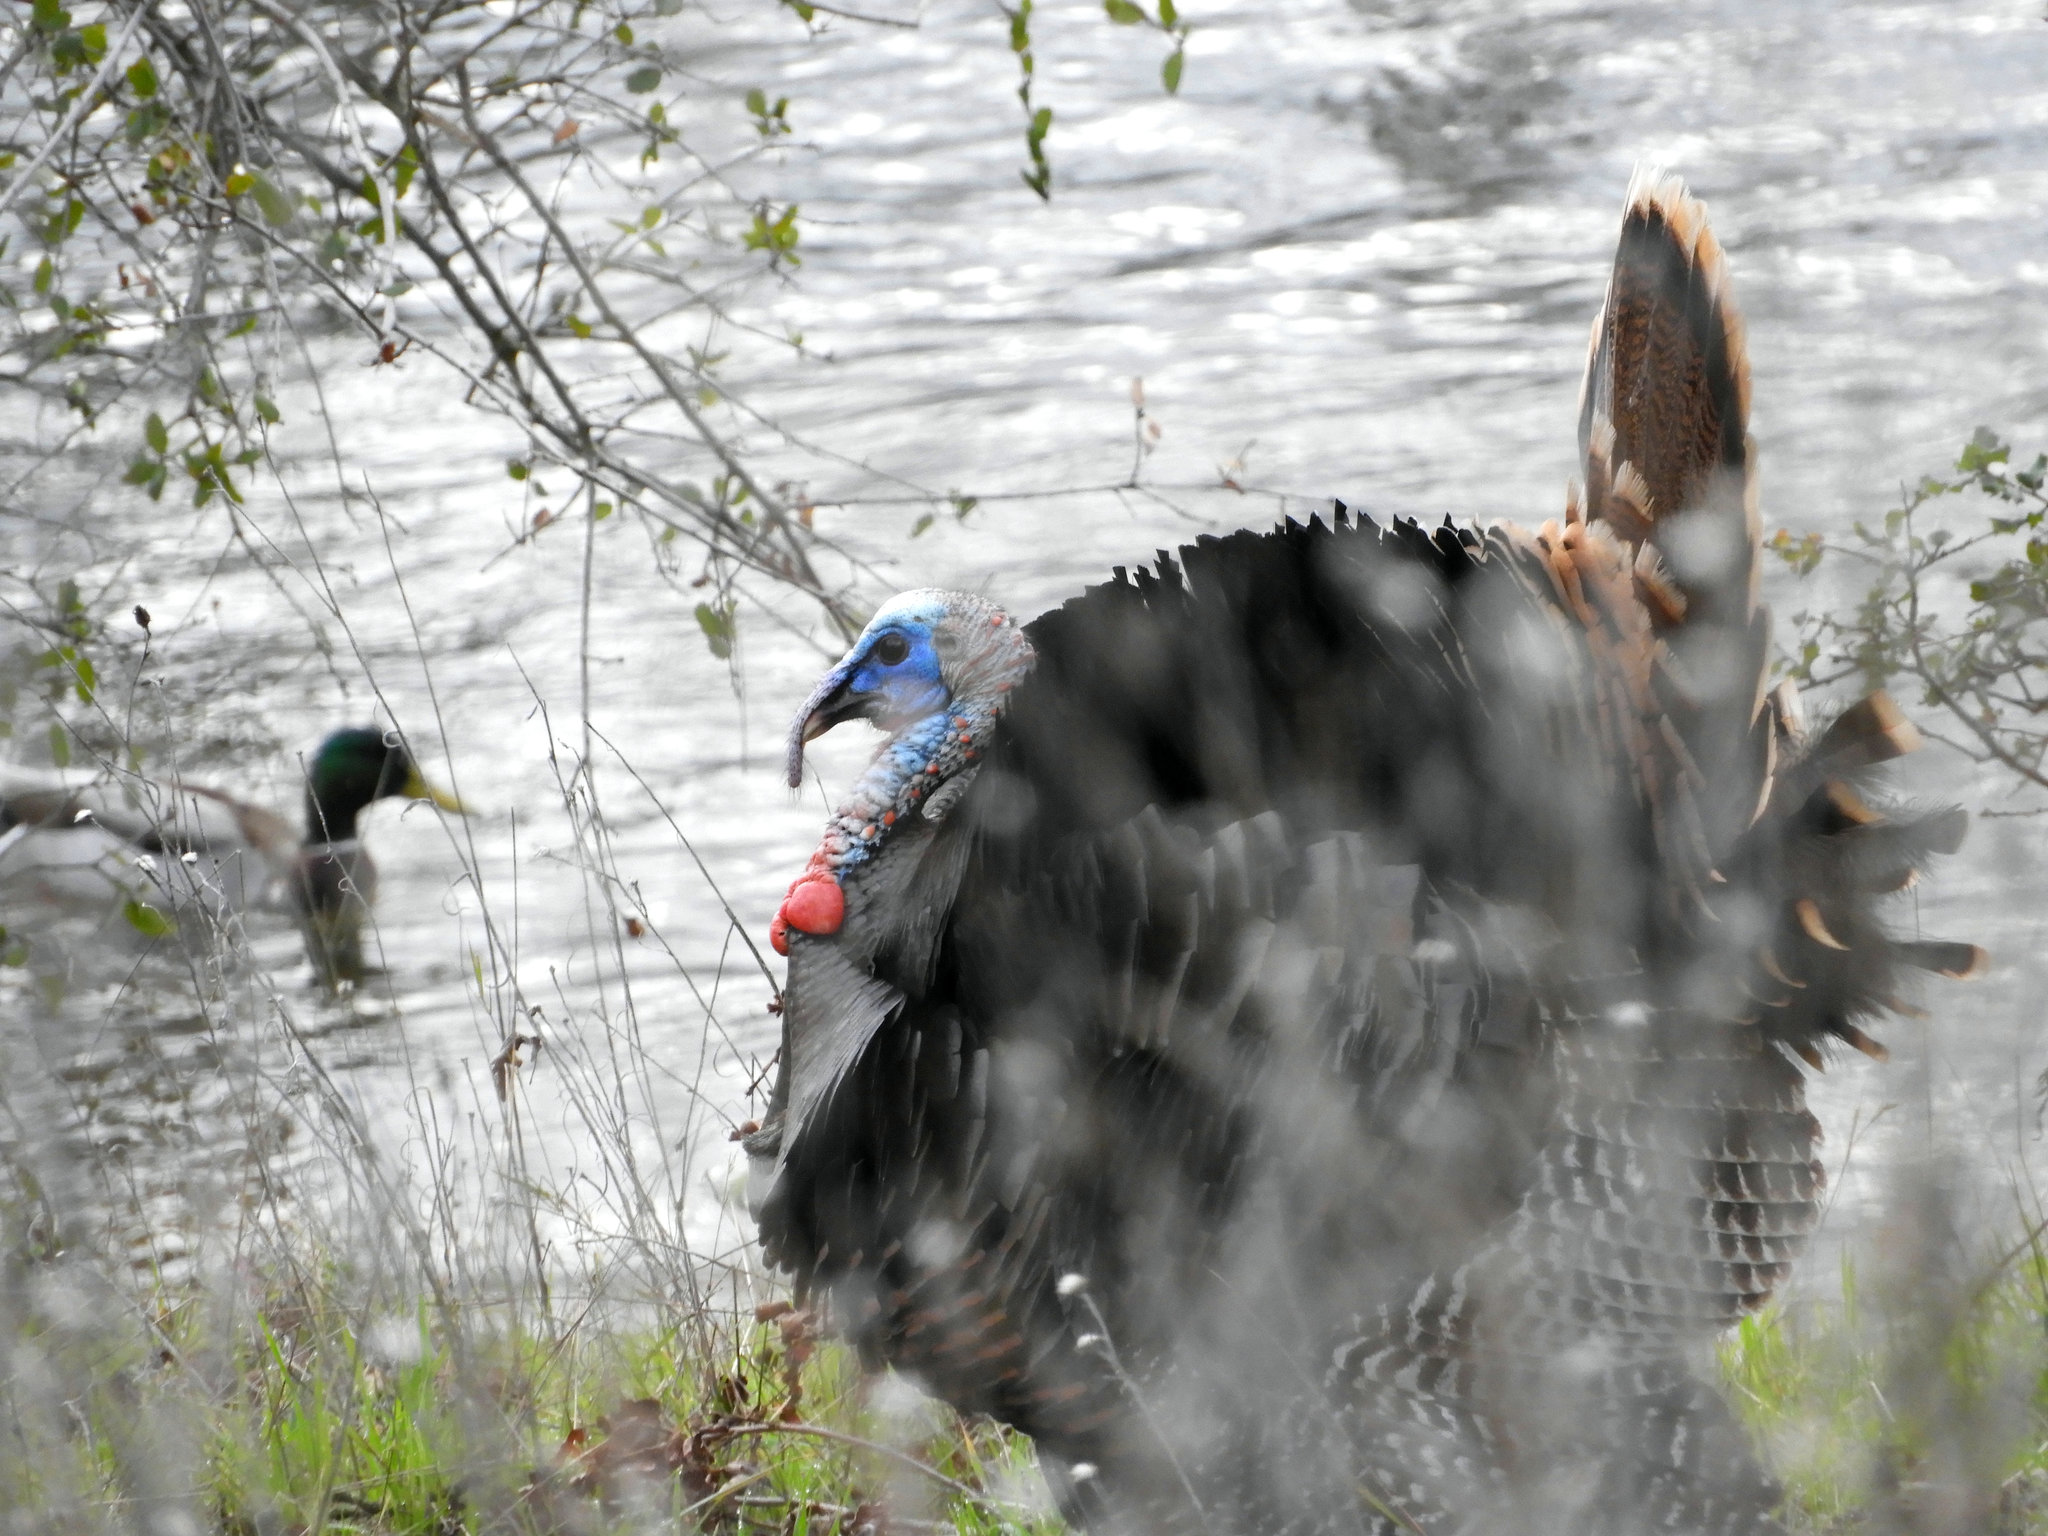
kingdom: Animalia
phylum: Chordata
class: Aves
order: Galliformes
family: Phasianidae
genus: Meleagris
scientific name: Meleagris gallopavo
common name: Wild turkey
